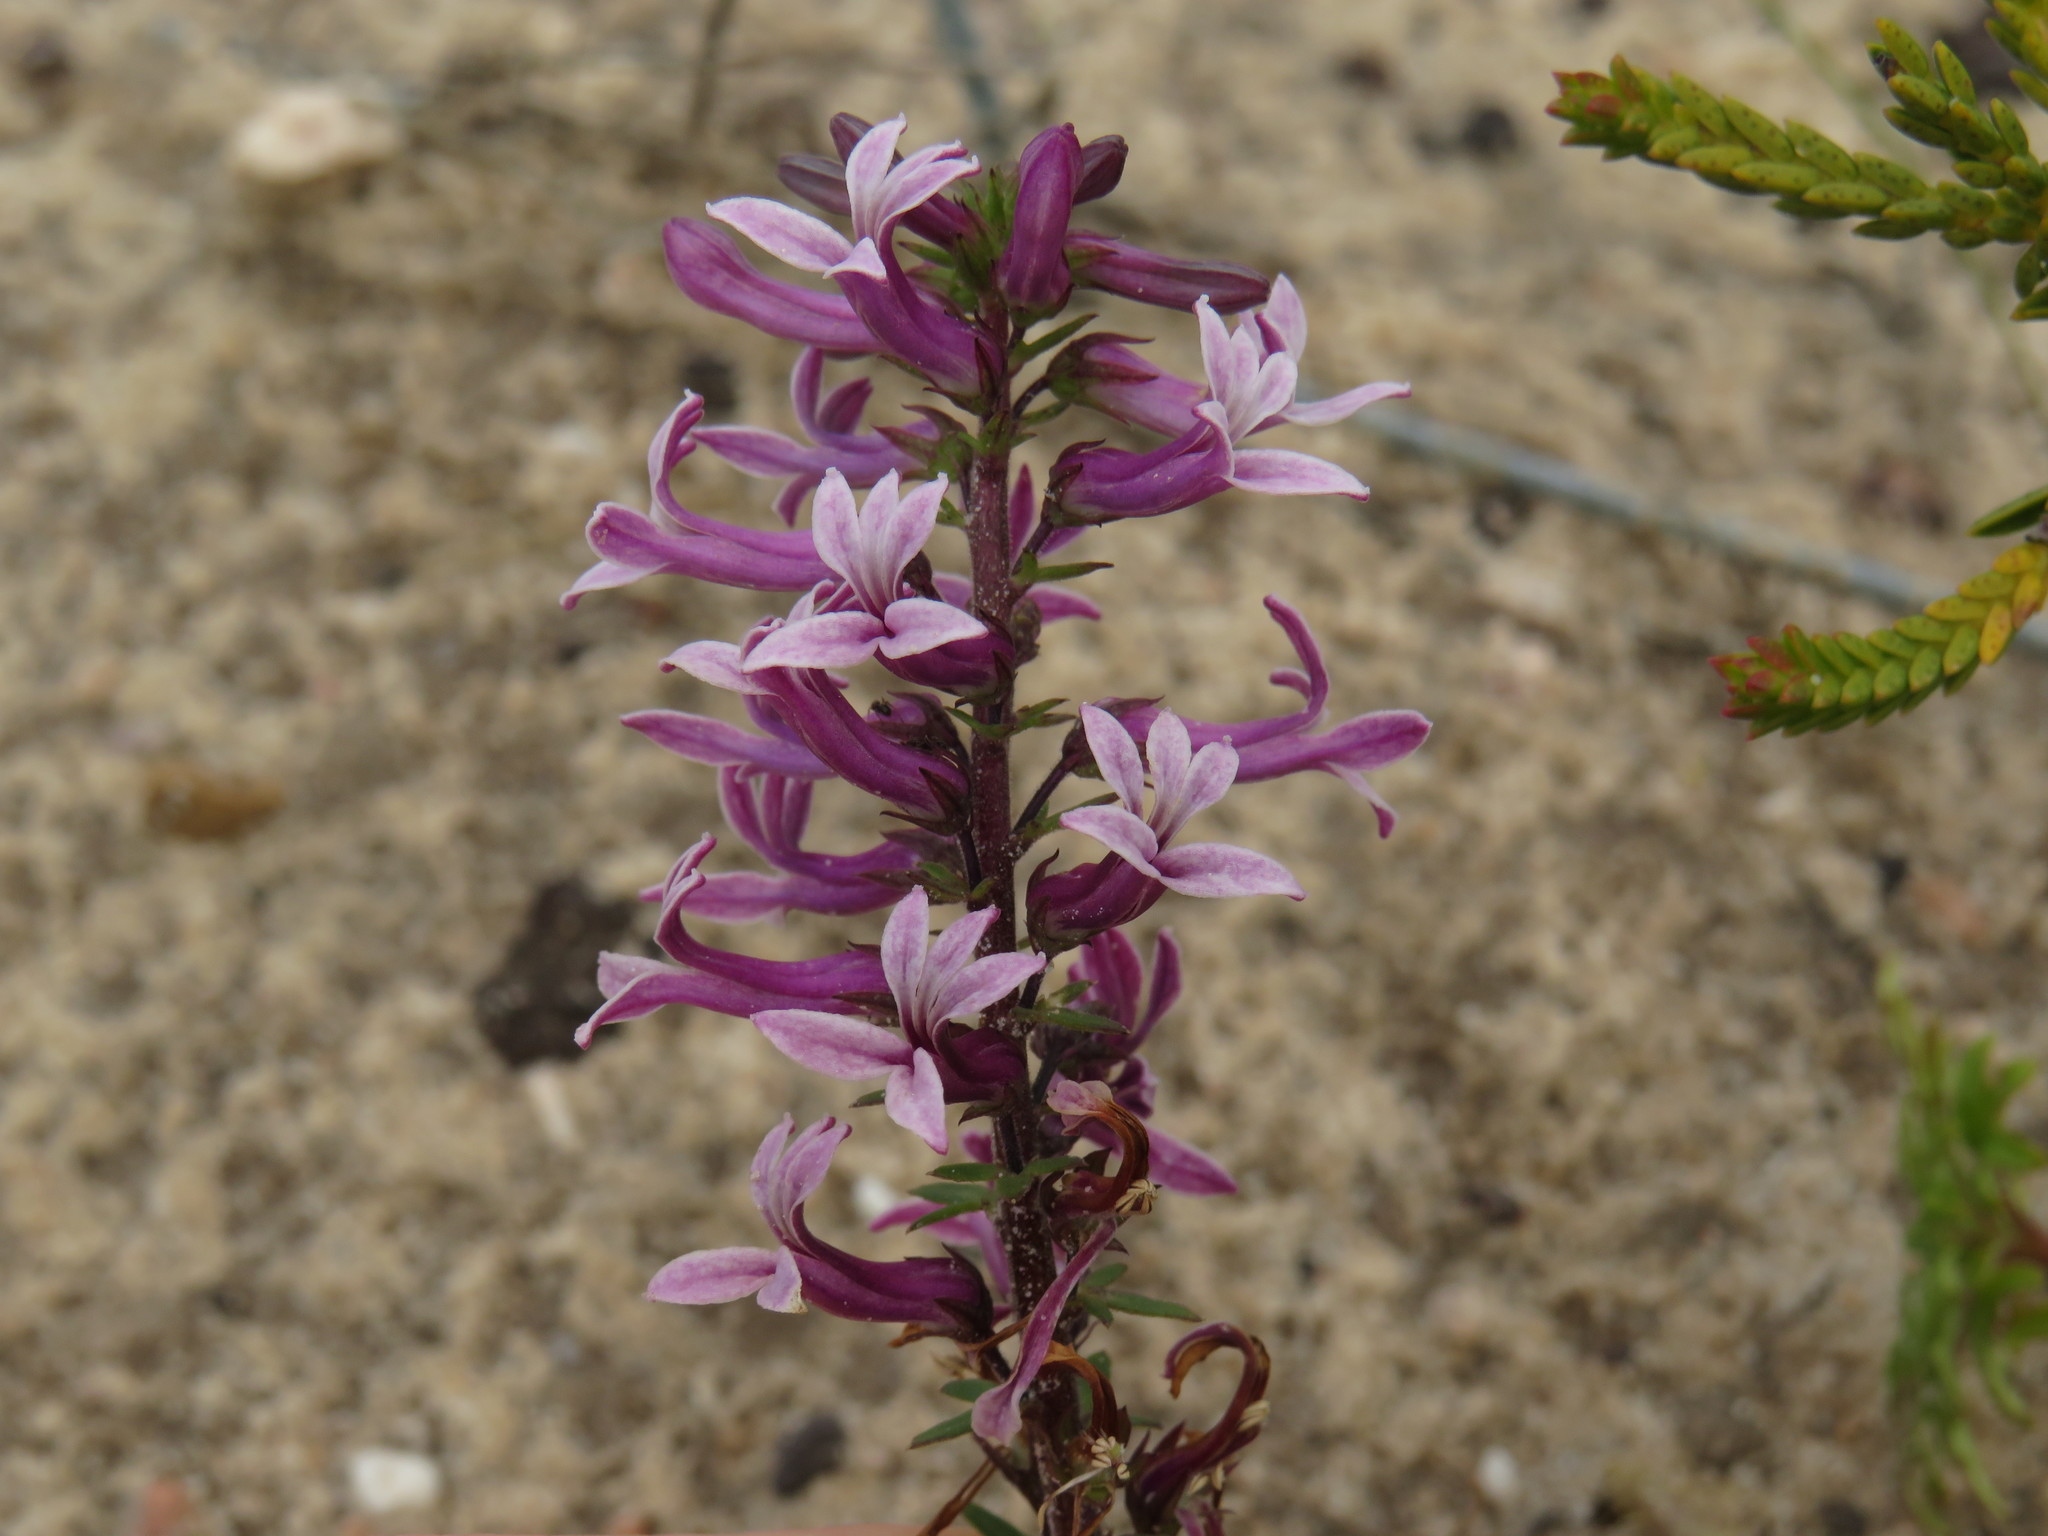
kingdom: Plantae
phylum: Tracheophyta
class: Magnoliopsida
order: Asterales
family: Campanulaceae
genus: Cyphia
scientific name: Cyphia bulbosa
